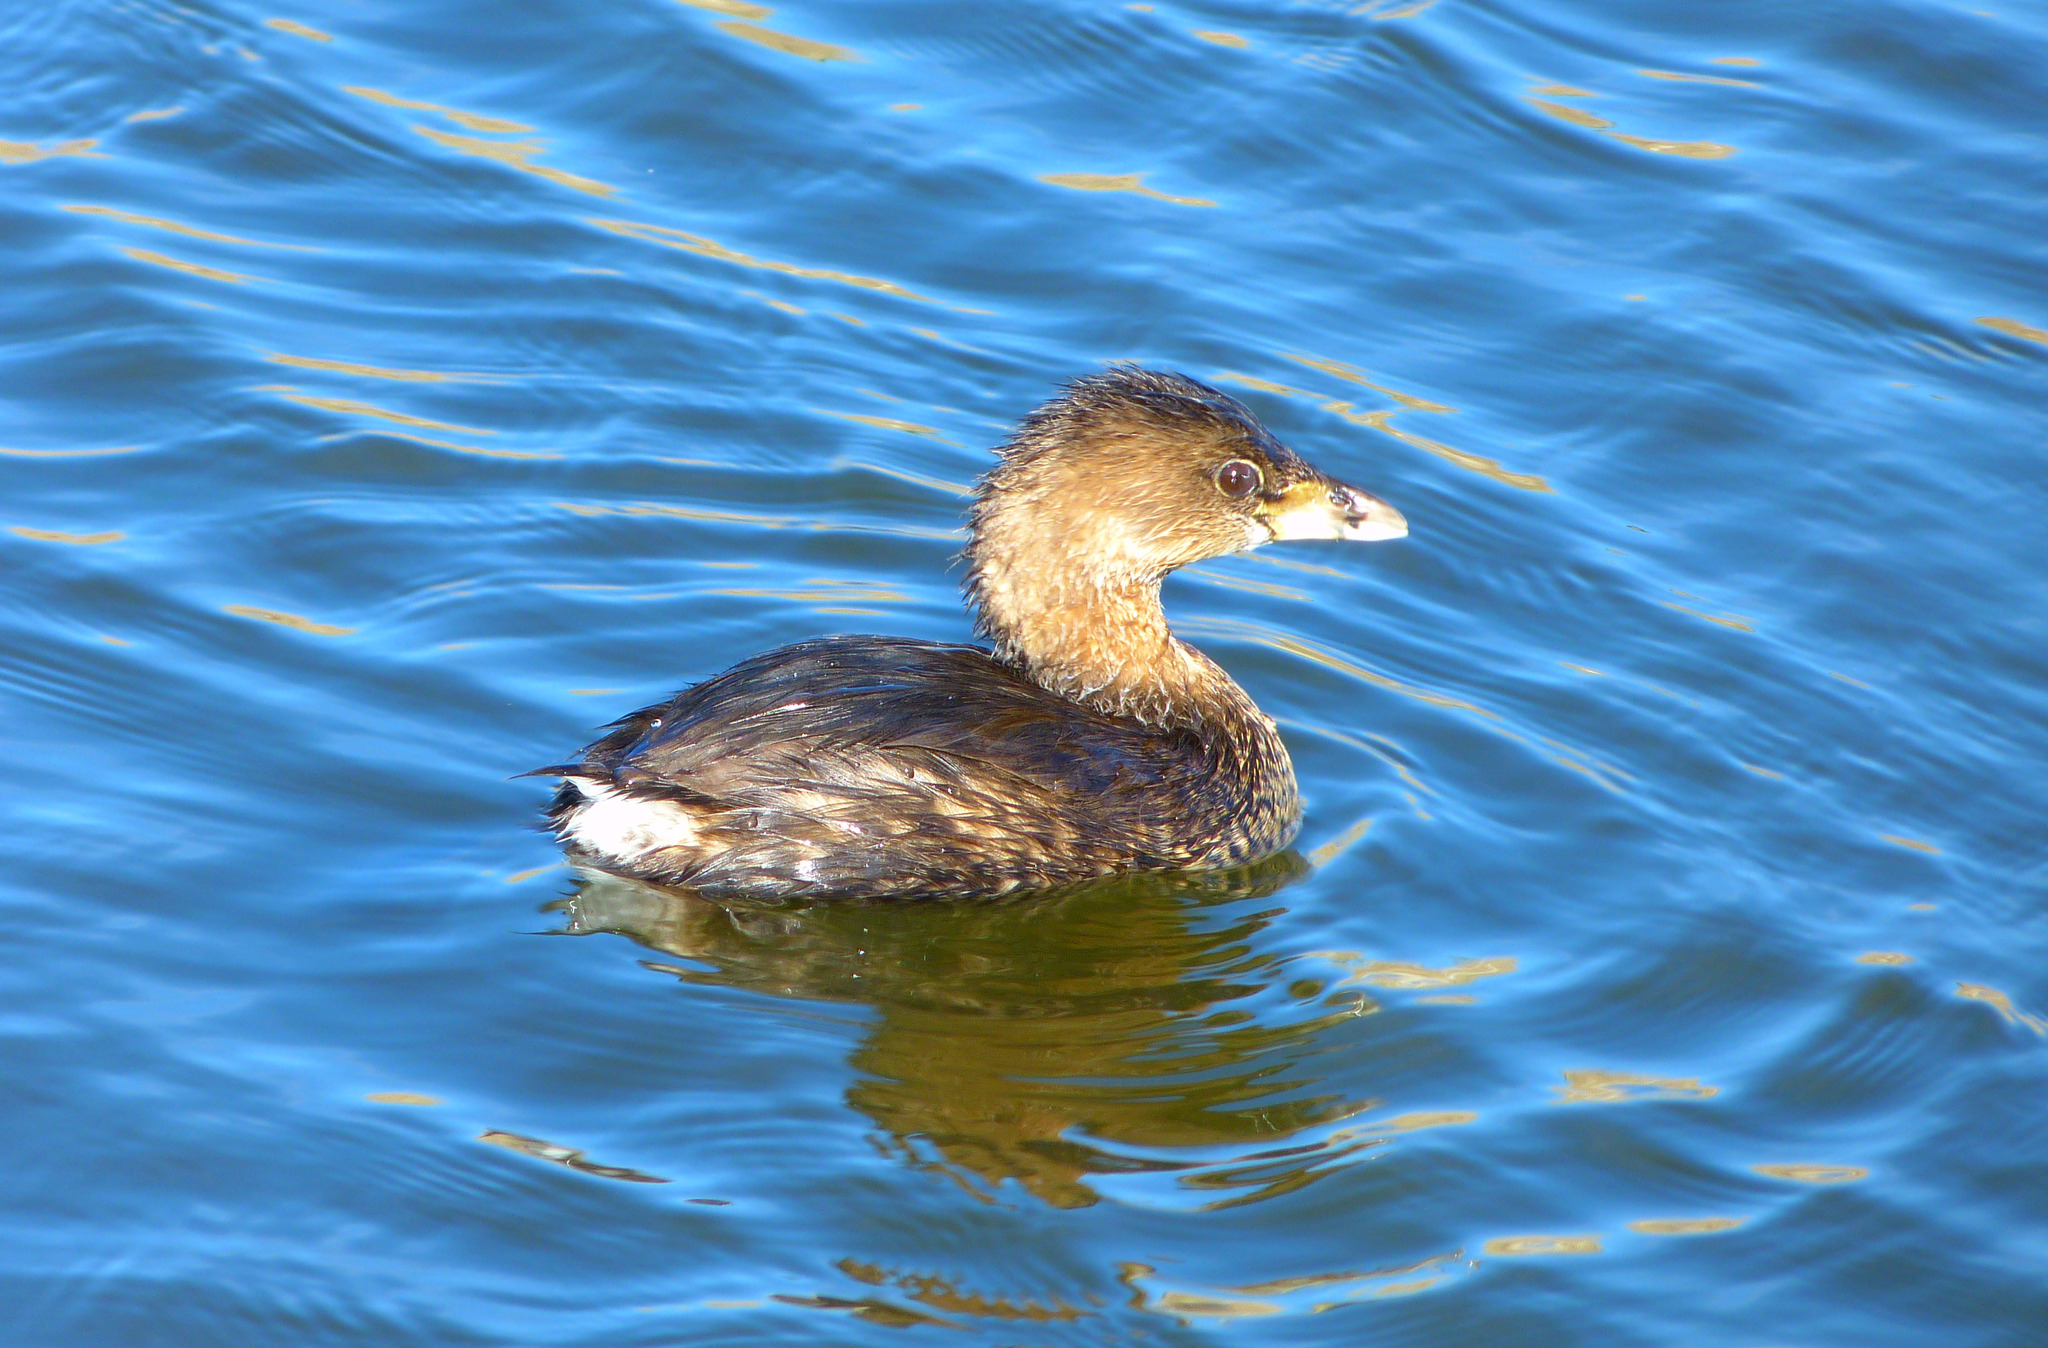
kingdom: Animalia
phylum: Chordata
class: Aves
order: Podicipediformes
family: Podicipedidae
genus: Podilymbus
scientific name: Podilymbus podiceps
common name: Pied-billed grebe
